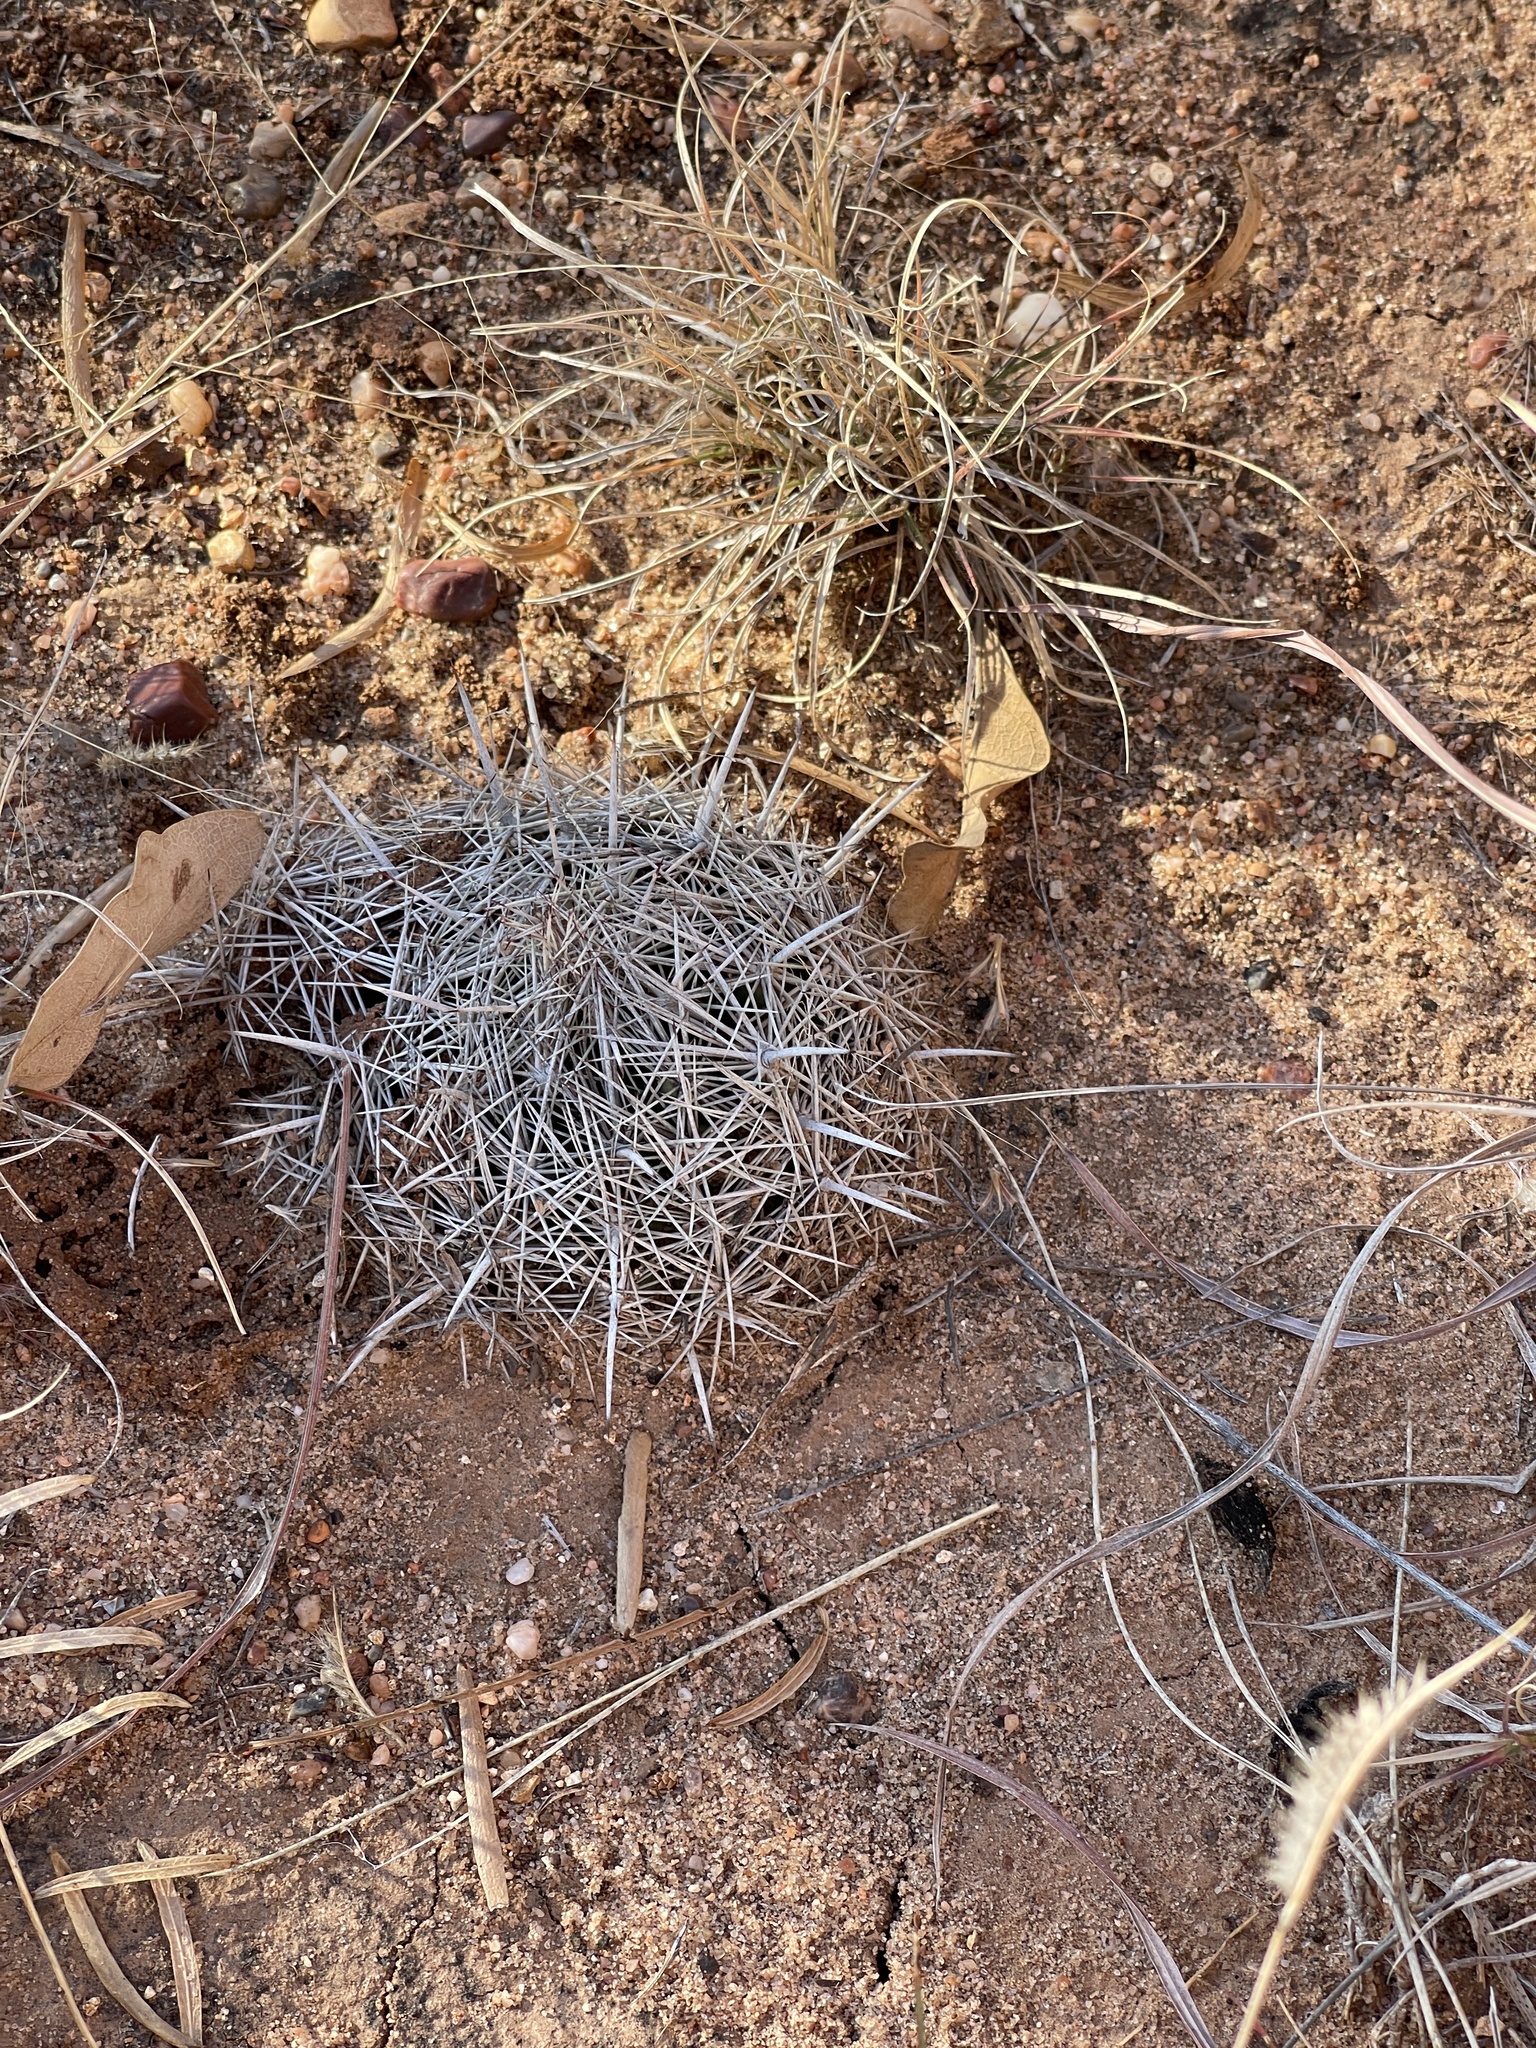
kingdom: Plantae
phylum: Tracheophyta
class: Magnoliopsida
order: Caryophyllales
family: Cactaceae
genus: Coryphantha
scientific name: Coryphantha echinus
